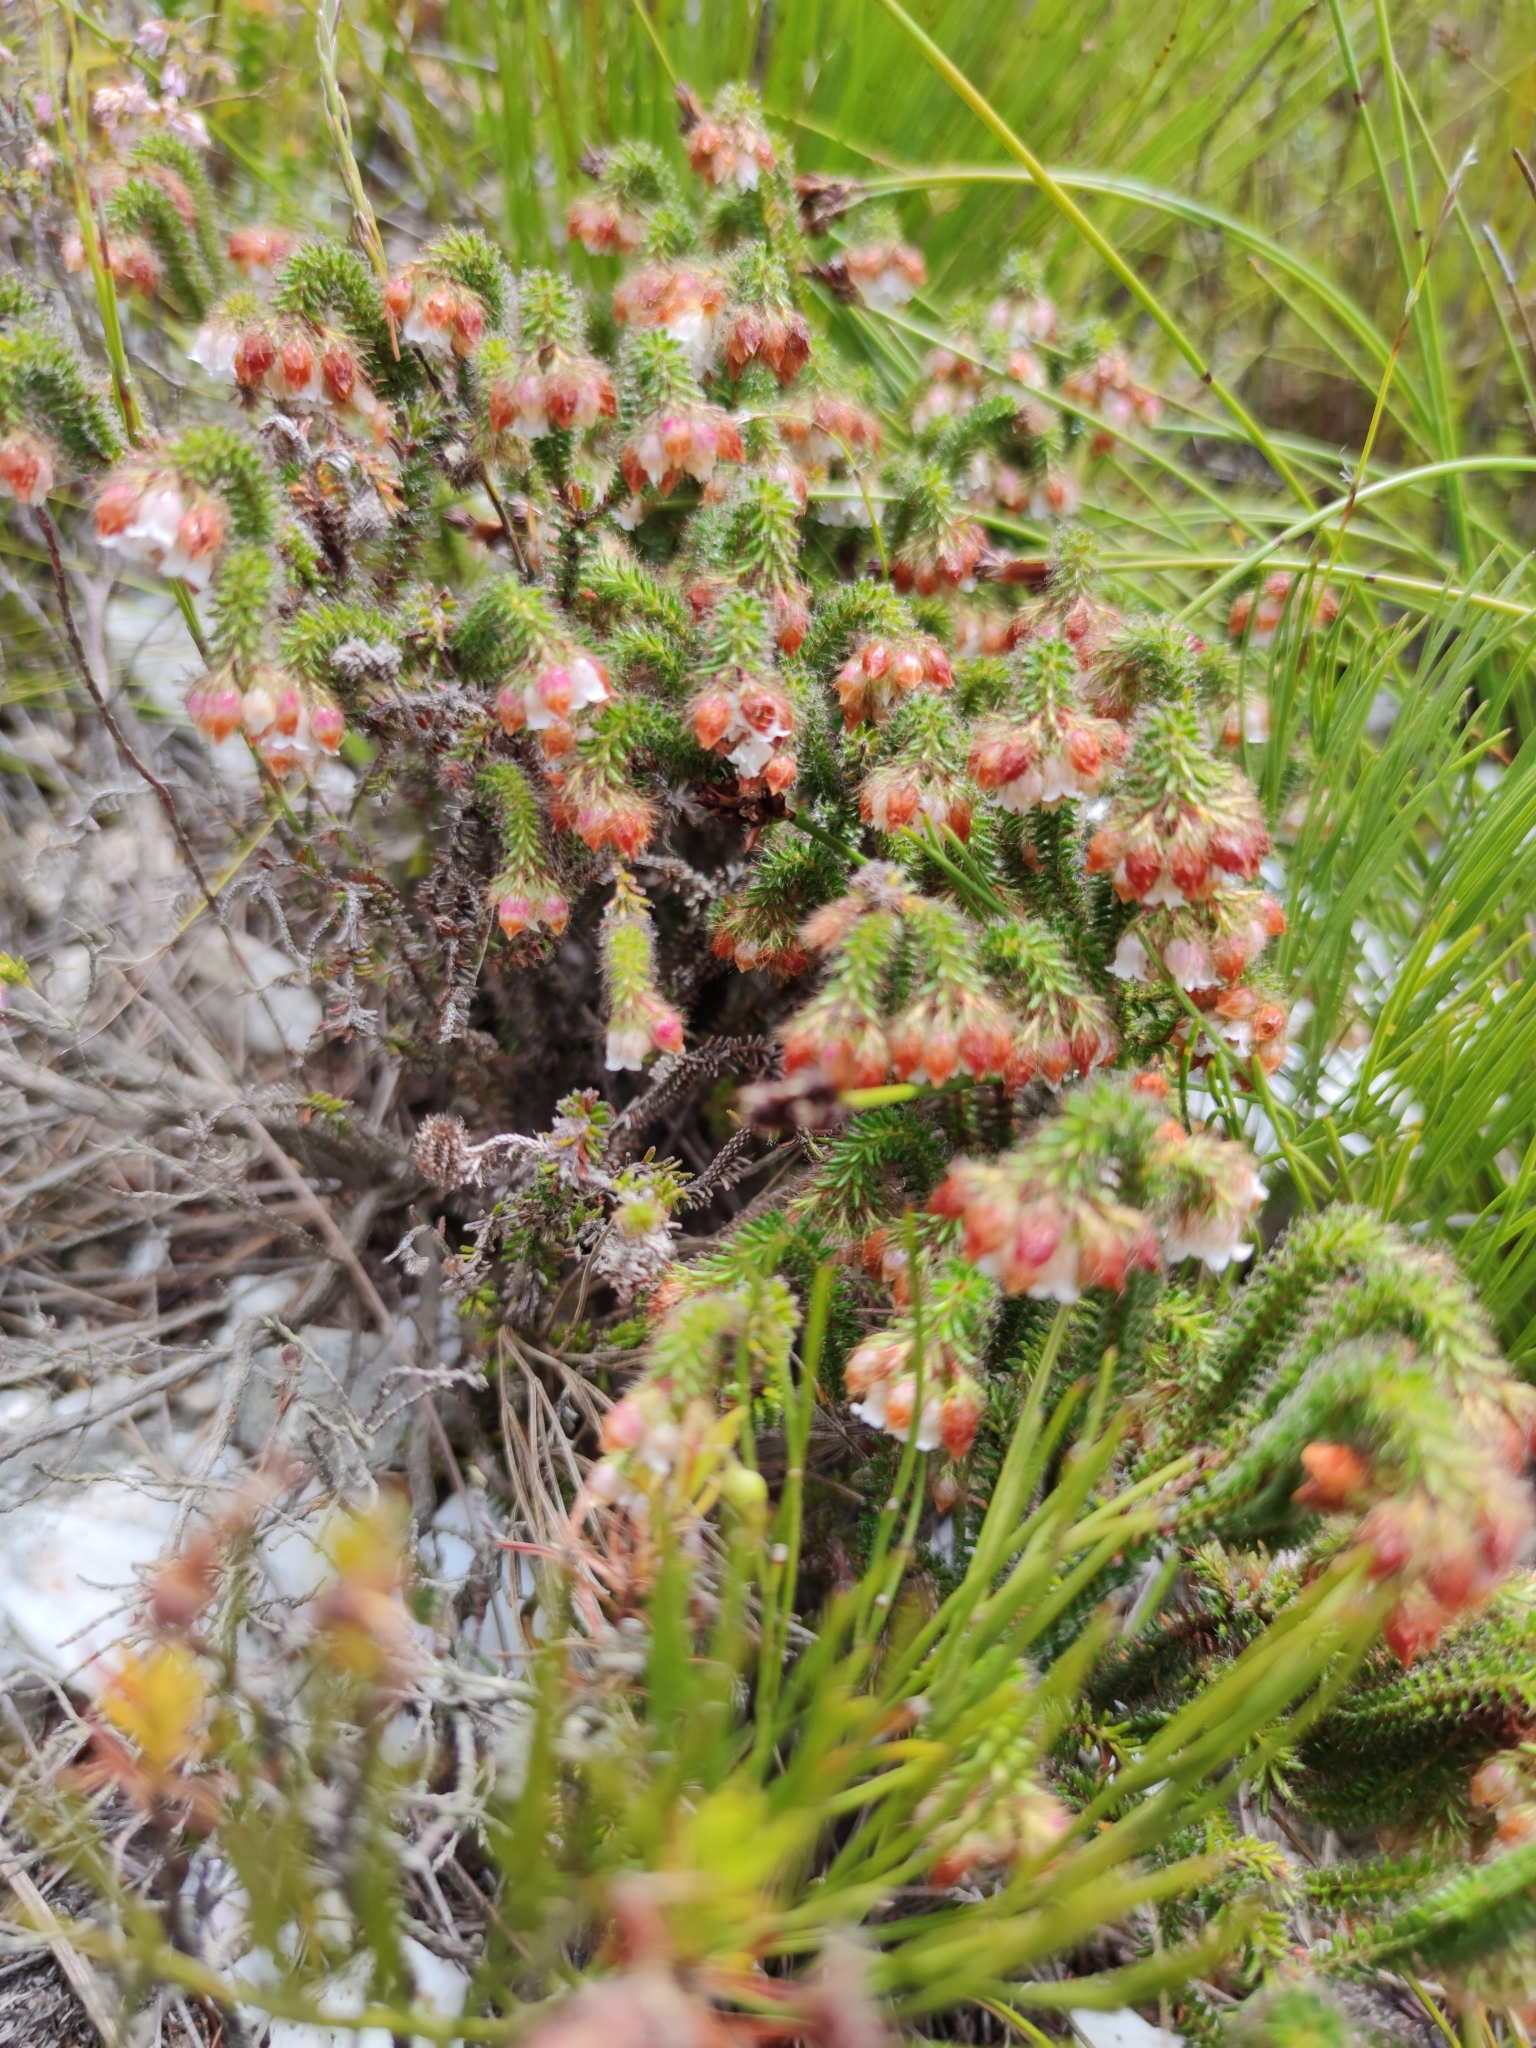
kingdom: Plantae
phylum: Tracheophyta
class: Magnoliopsida
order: Ericales
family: Ericaceae
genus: Erica
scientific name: Erica cygnea
